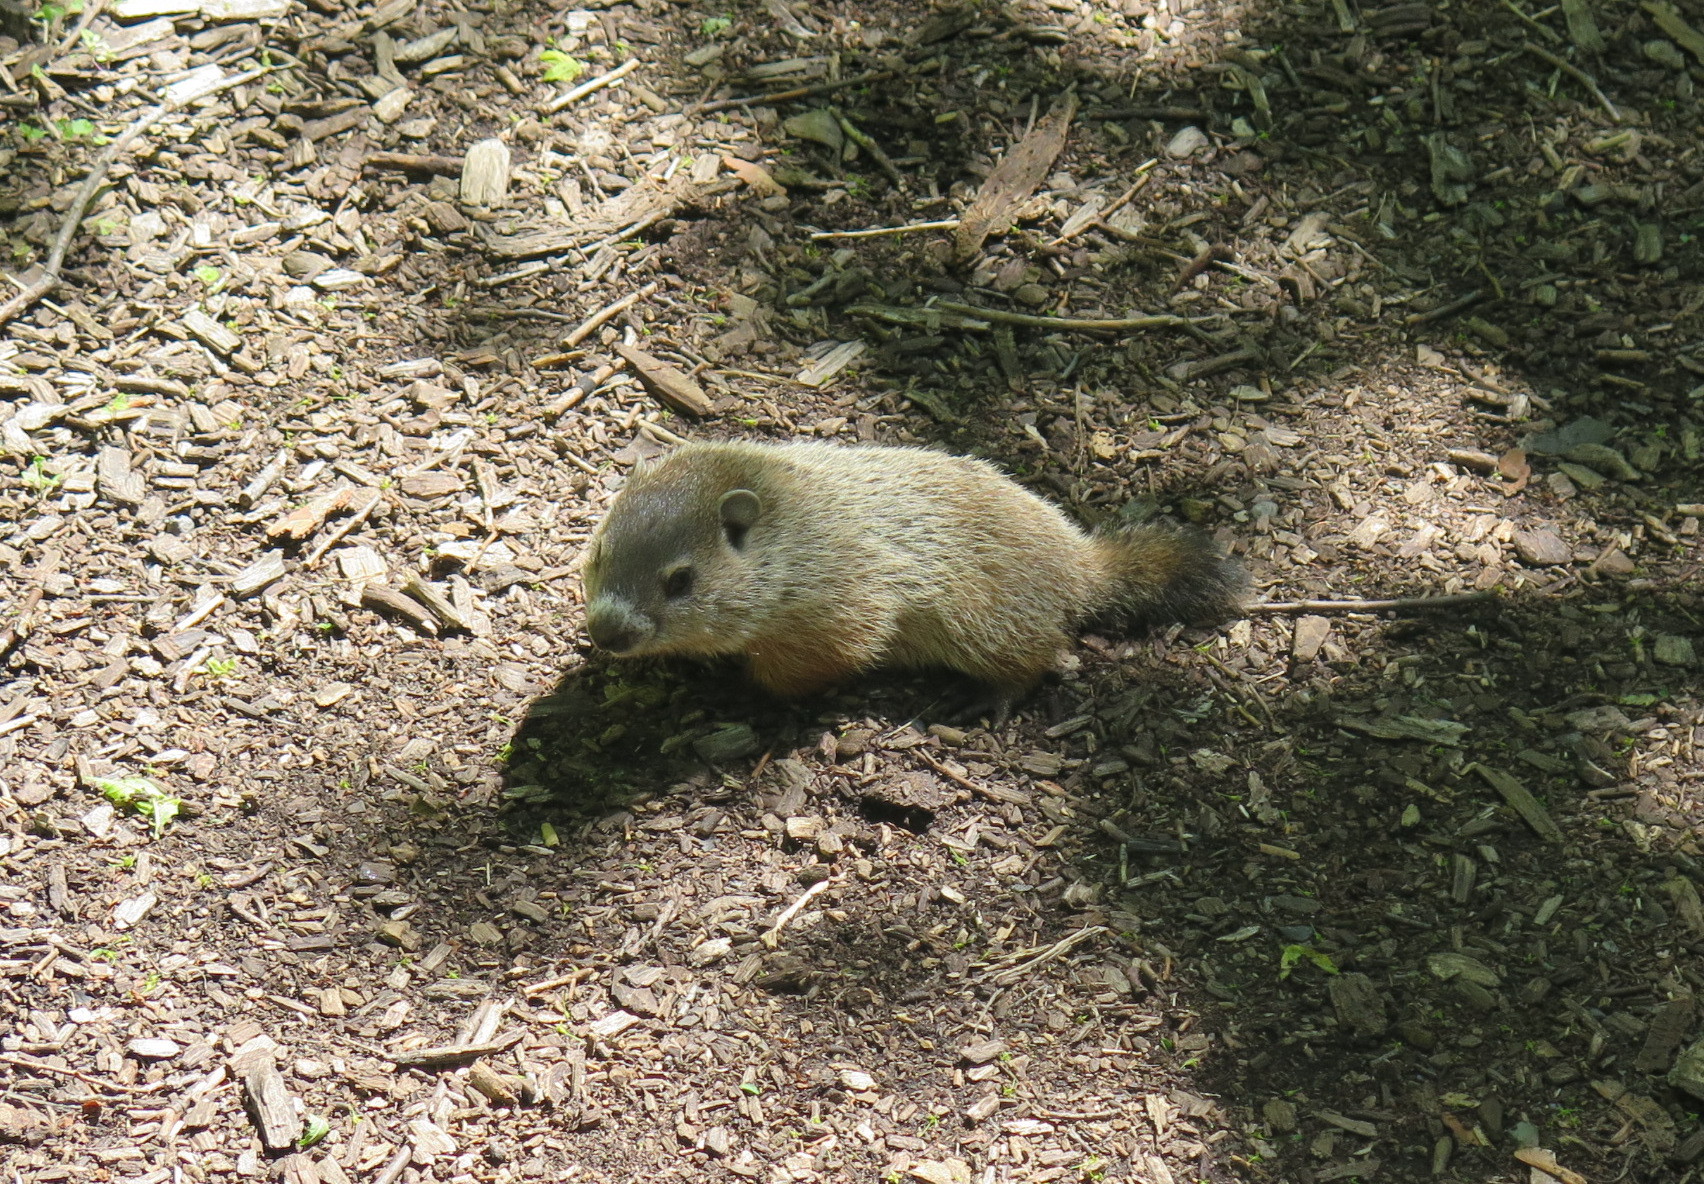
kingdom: Animalia
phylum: Chordata
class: Mammalia
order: Rodentia
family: Sciuridae
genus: Marmota
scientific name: Marmota monax
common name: Groundhog
